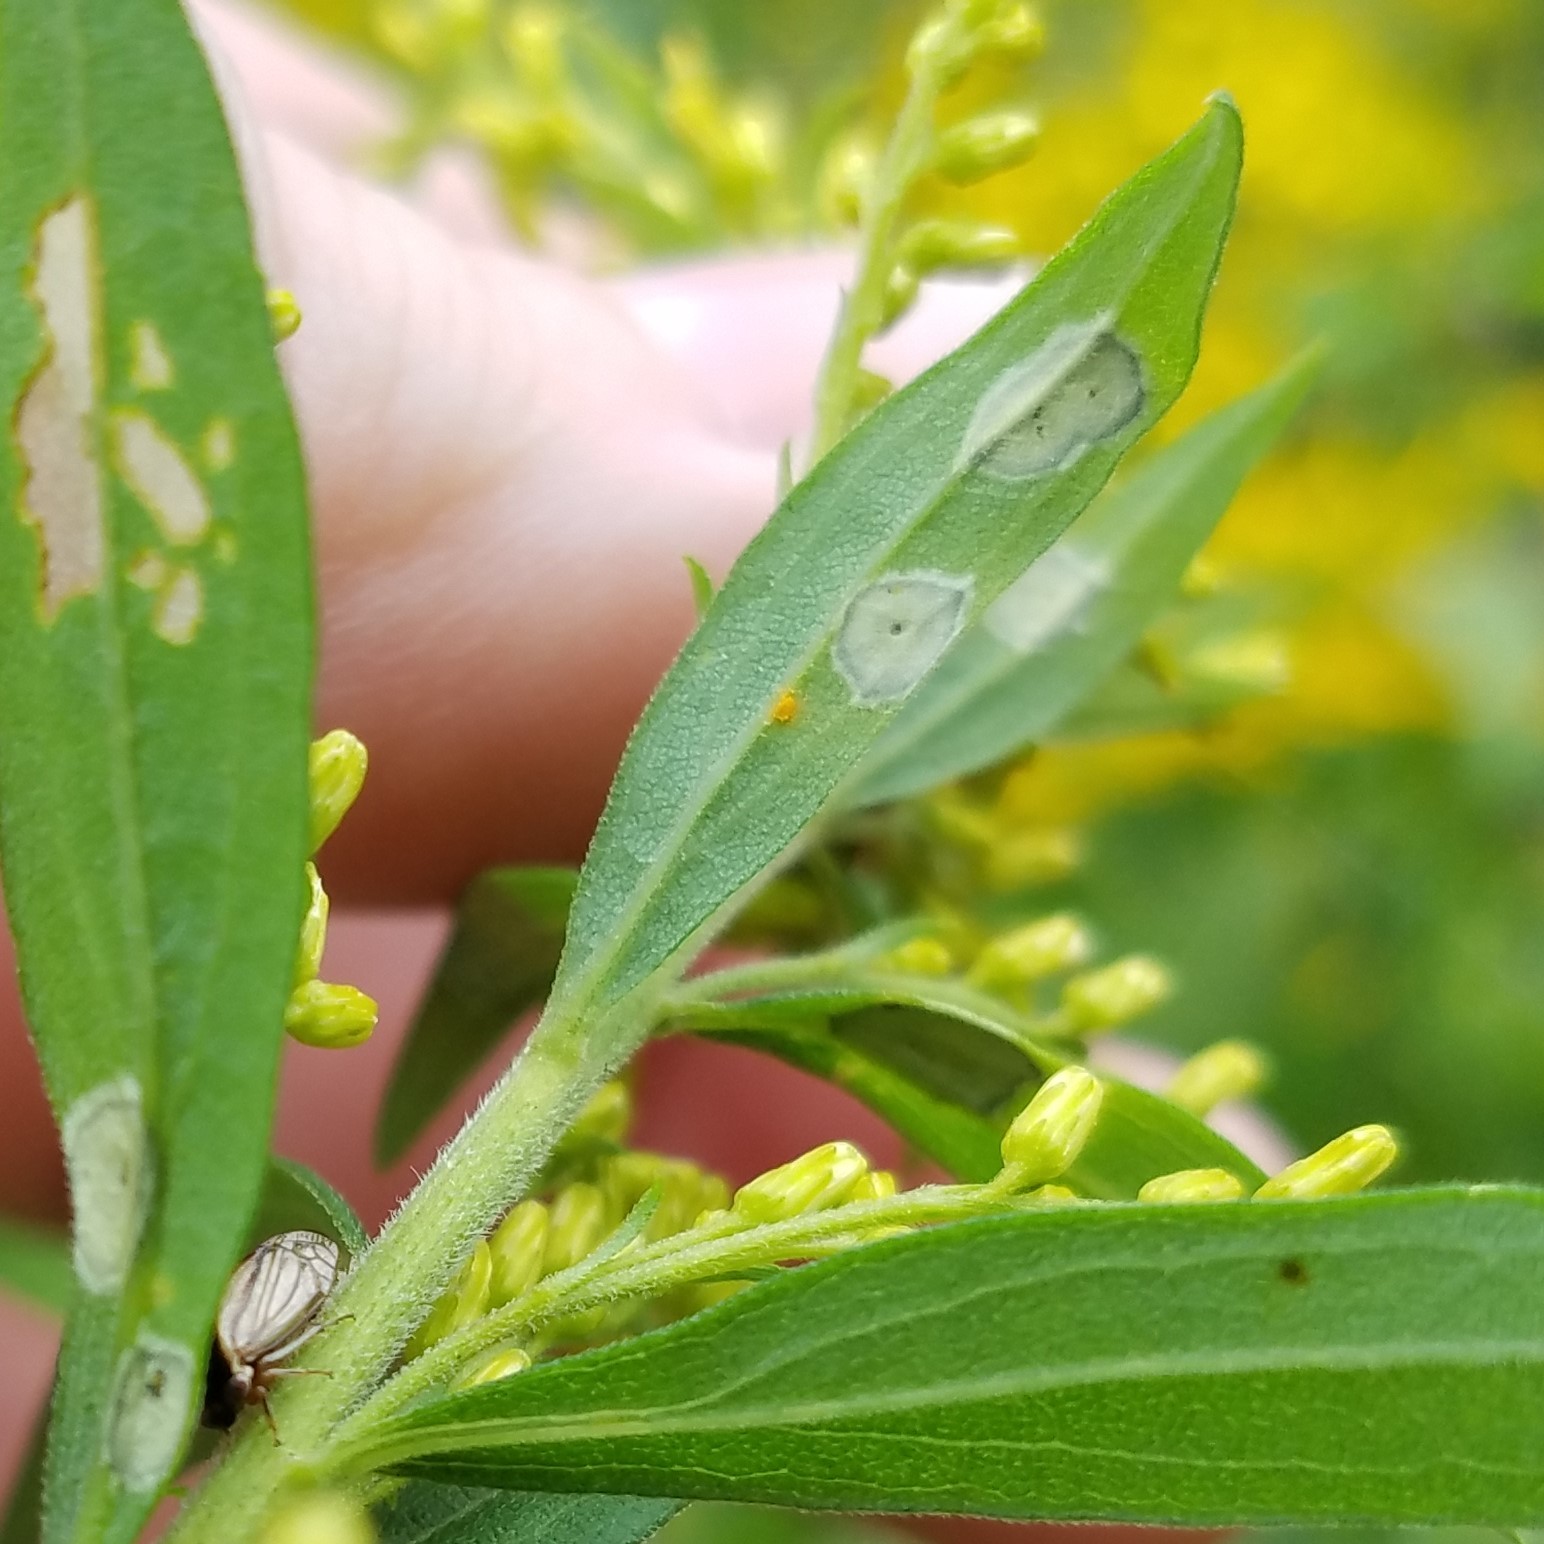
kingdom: Animalia
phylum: Arthropoda
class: Insecta
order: Diptera
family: Cecidomyiidae
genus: Asteromyia
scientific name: Asteromyia carbonifera
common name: Carbonifera goldenrod gall midge
